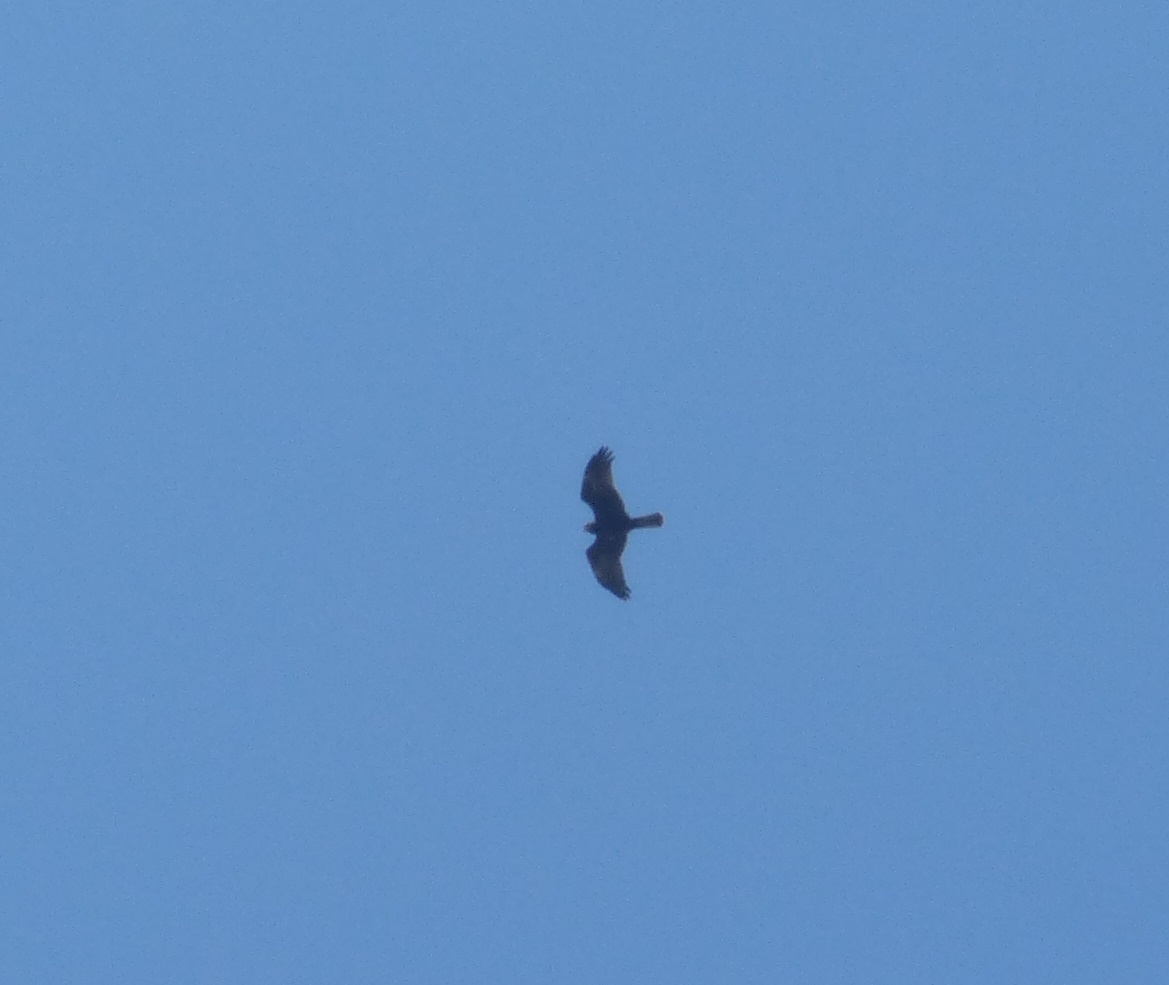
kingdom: Animalia
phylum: Chordata
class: Aves
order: Accipitriformes
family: Accipitridae
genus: Circus
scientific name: Circus aeruginosus
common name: Western marsh harrier
